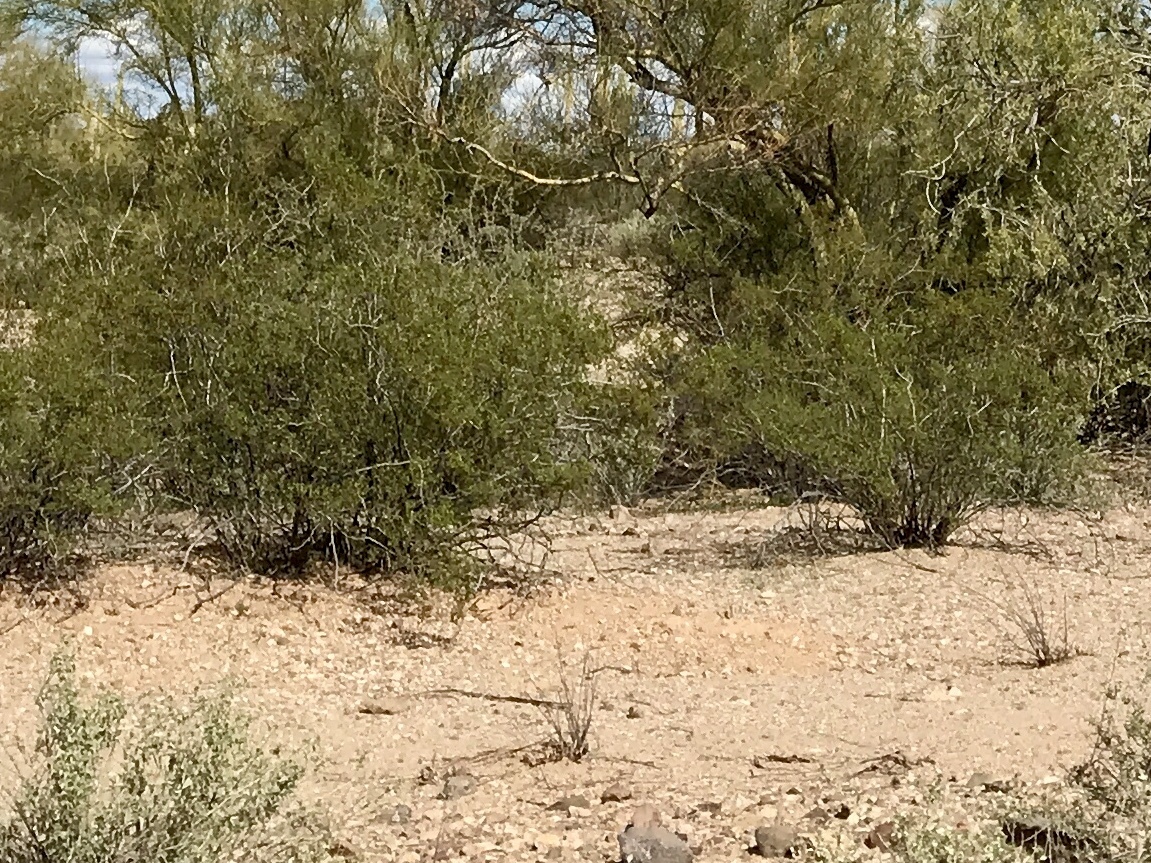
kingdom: Plantae
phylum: Tracheophyta
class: Magnoliopsida
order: Zygophyllales
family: Zygophyllaceae
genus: Larrea
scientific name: Larrea tridentata
